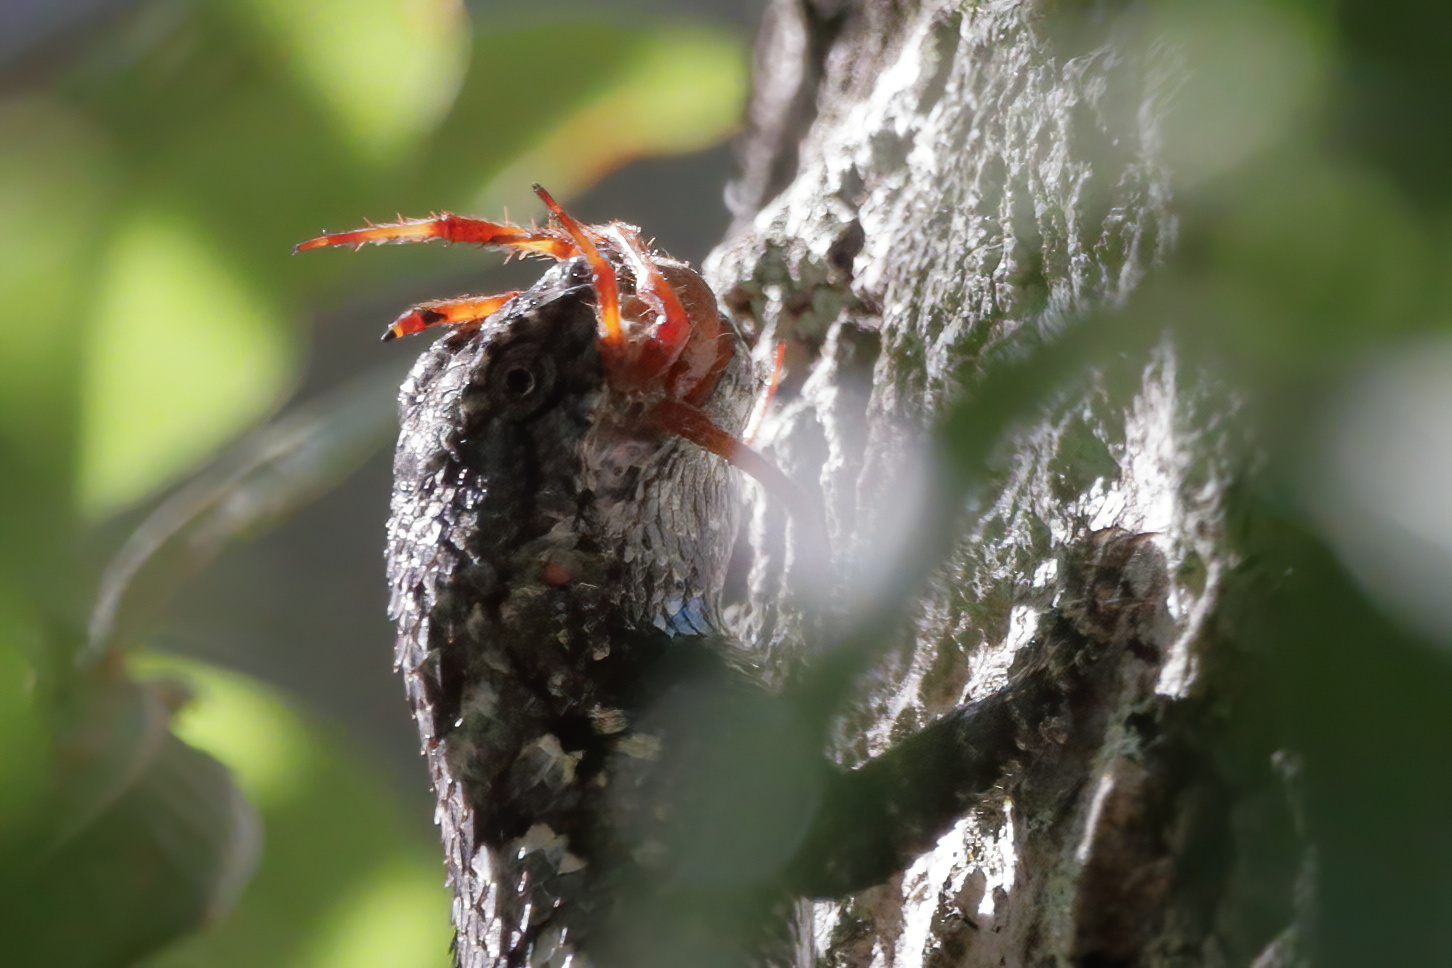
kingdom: Animalia
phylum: Chordata
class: Squamata
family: Phrynosomatidae
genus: Sceloporus
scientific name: Sceloporus undulatus
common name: Eastern fence lizard
